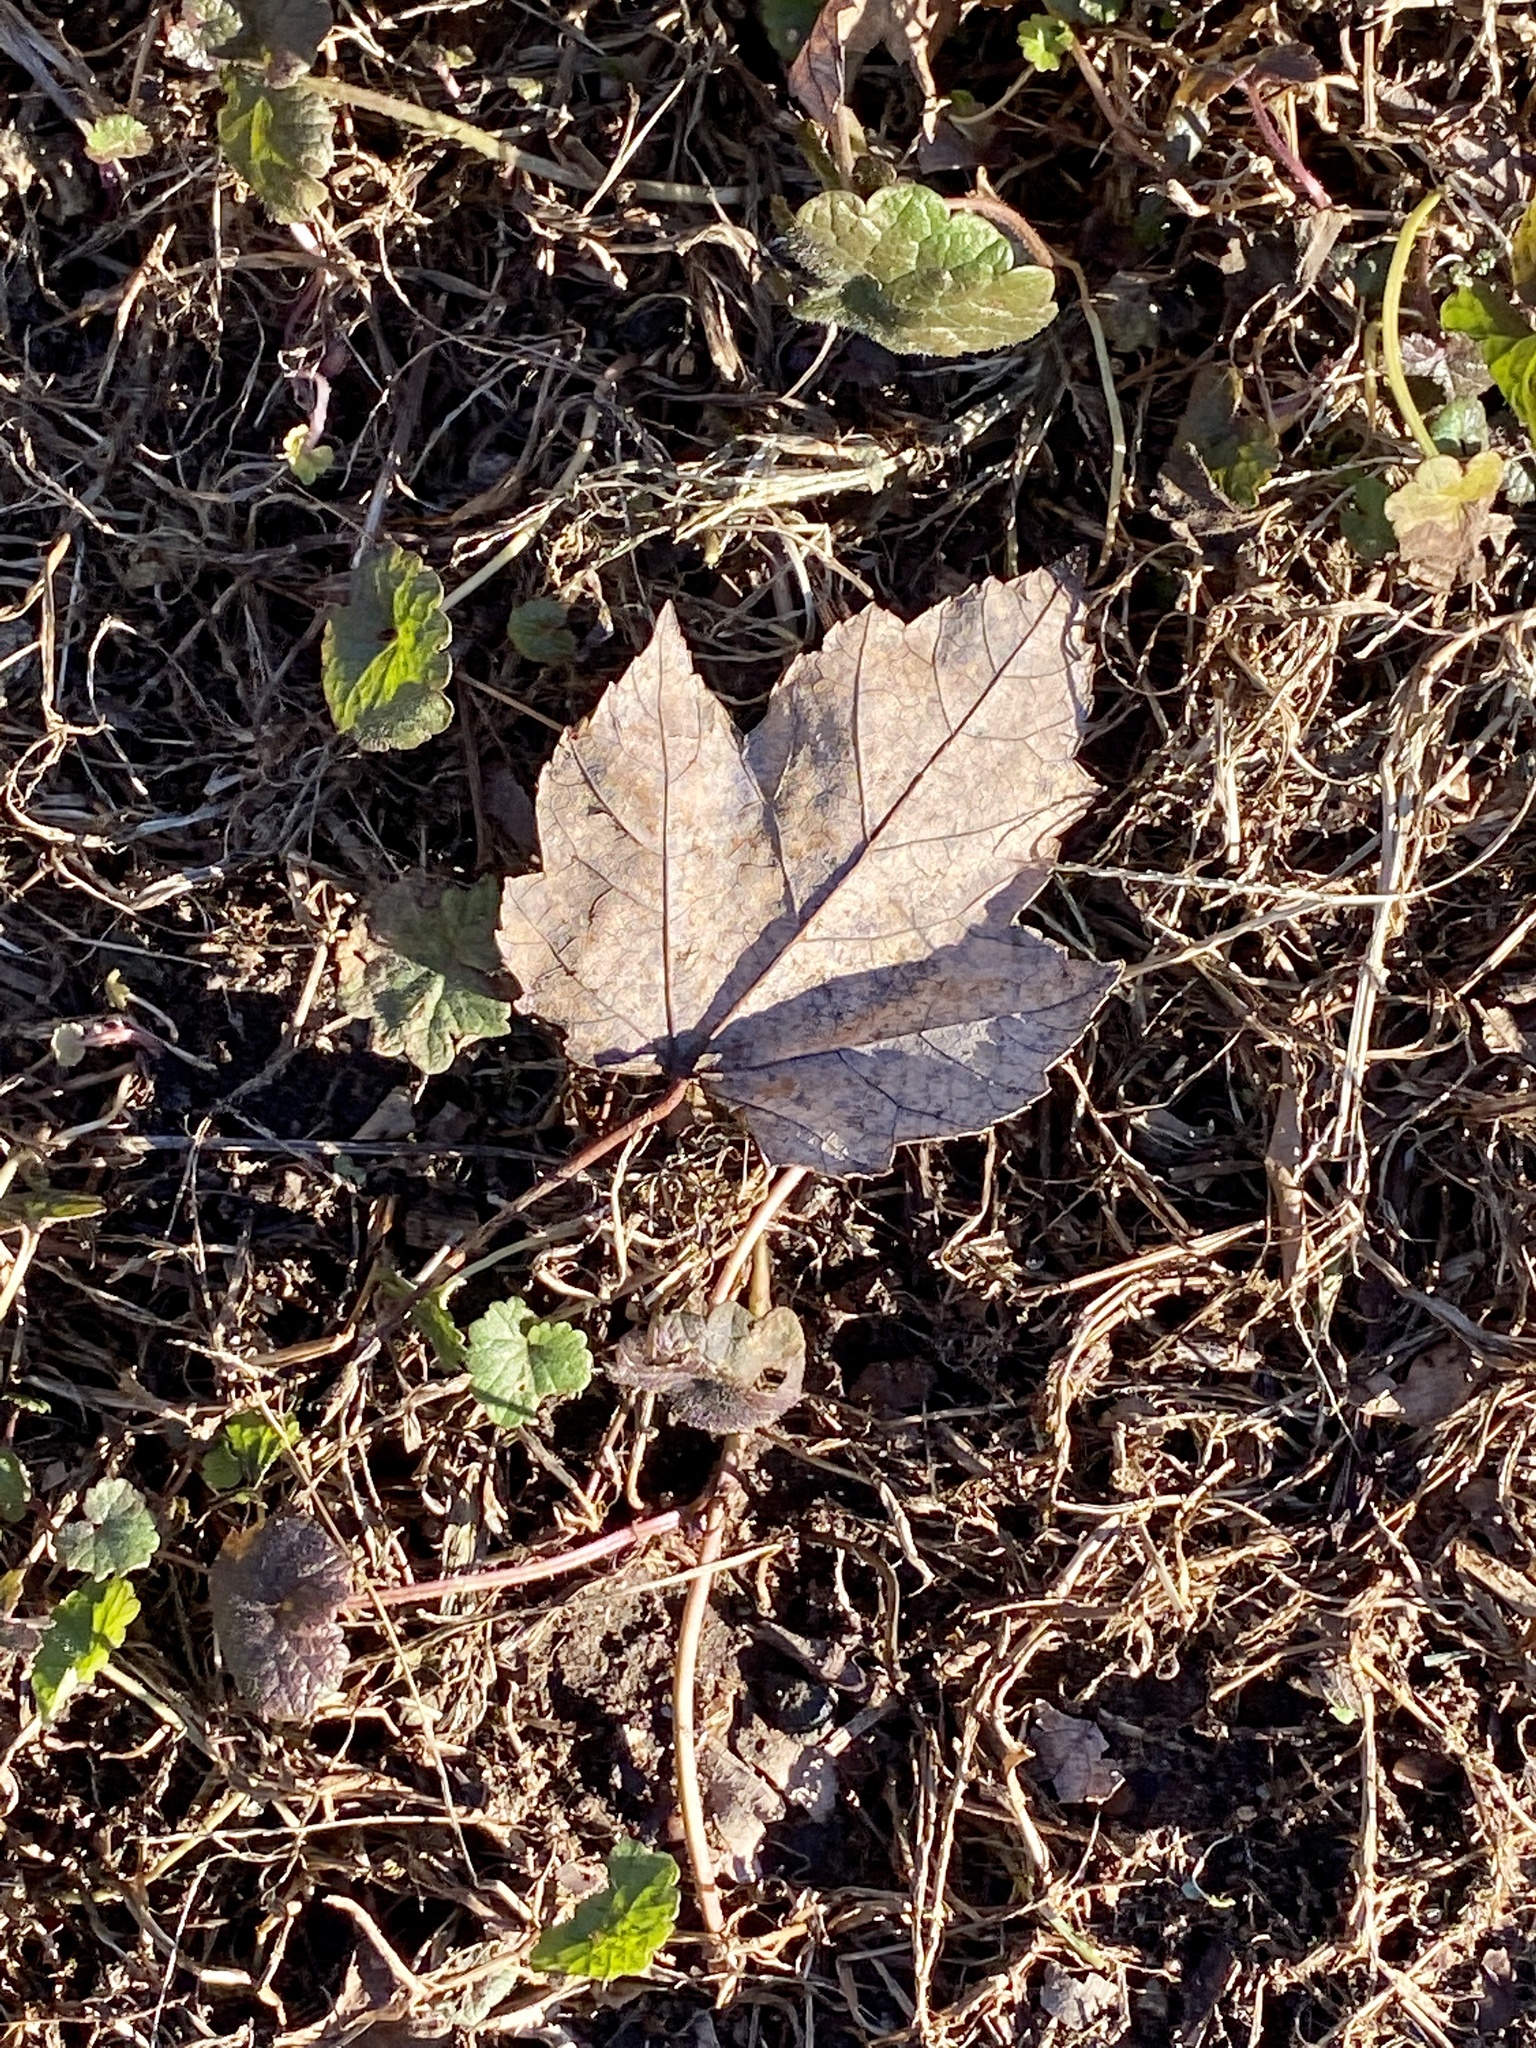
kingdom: Plantae
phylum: Tracheophyta
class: Magnoliopsida
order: Sapindales
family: Sapindaceae
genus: Acer
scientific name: Acer rubrum
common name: Red maple
